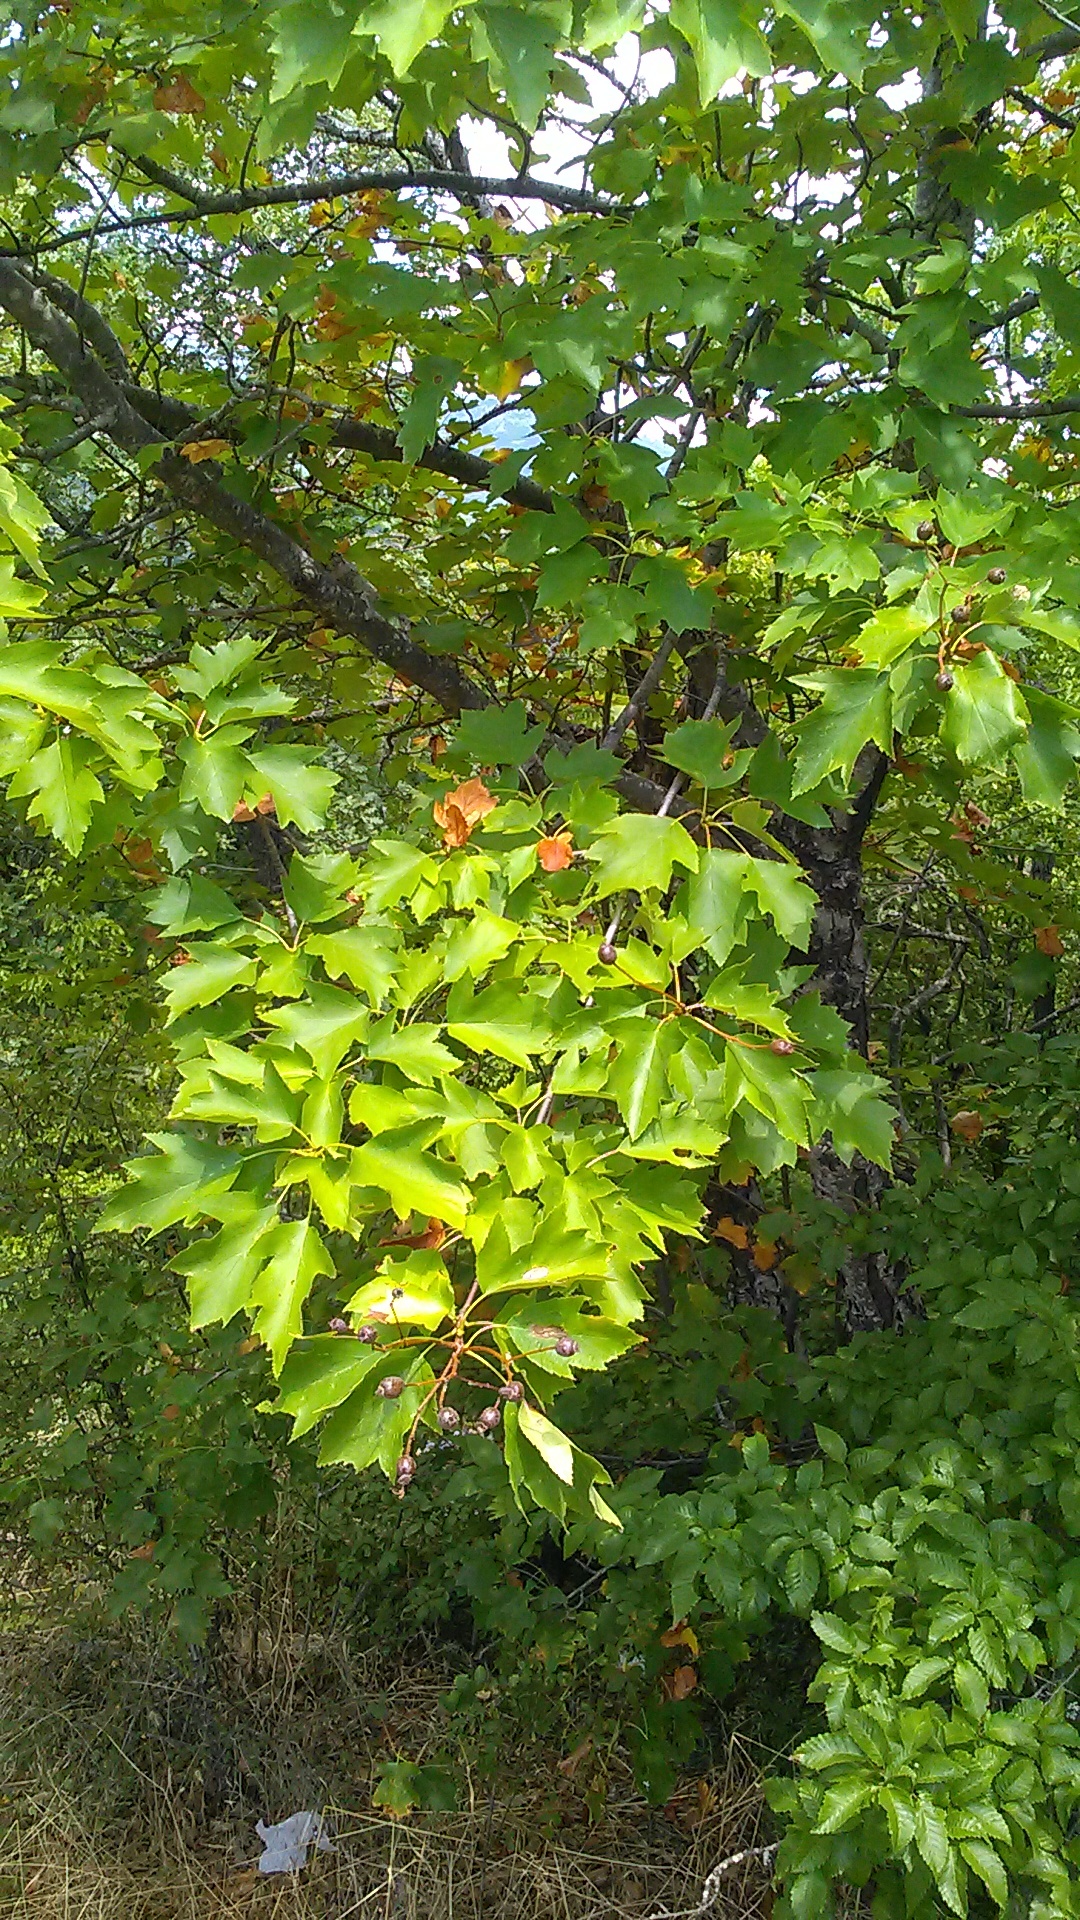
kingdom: Plantae
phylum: Tracheophyta
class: Magnoliopsida
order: Rosales
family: Rosaceae
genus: Torminalis
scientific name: Torminalis glaberrima
